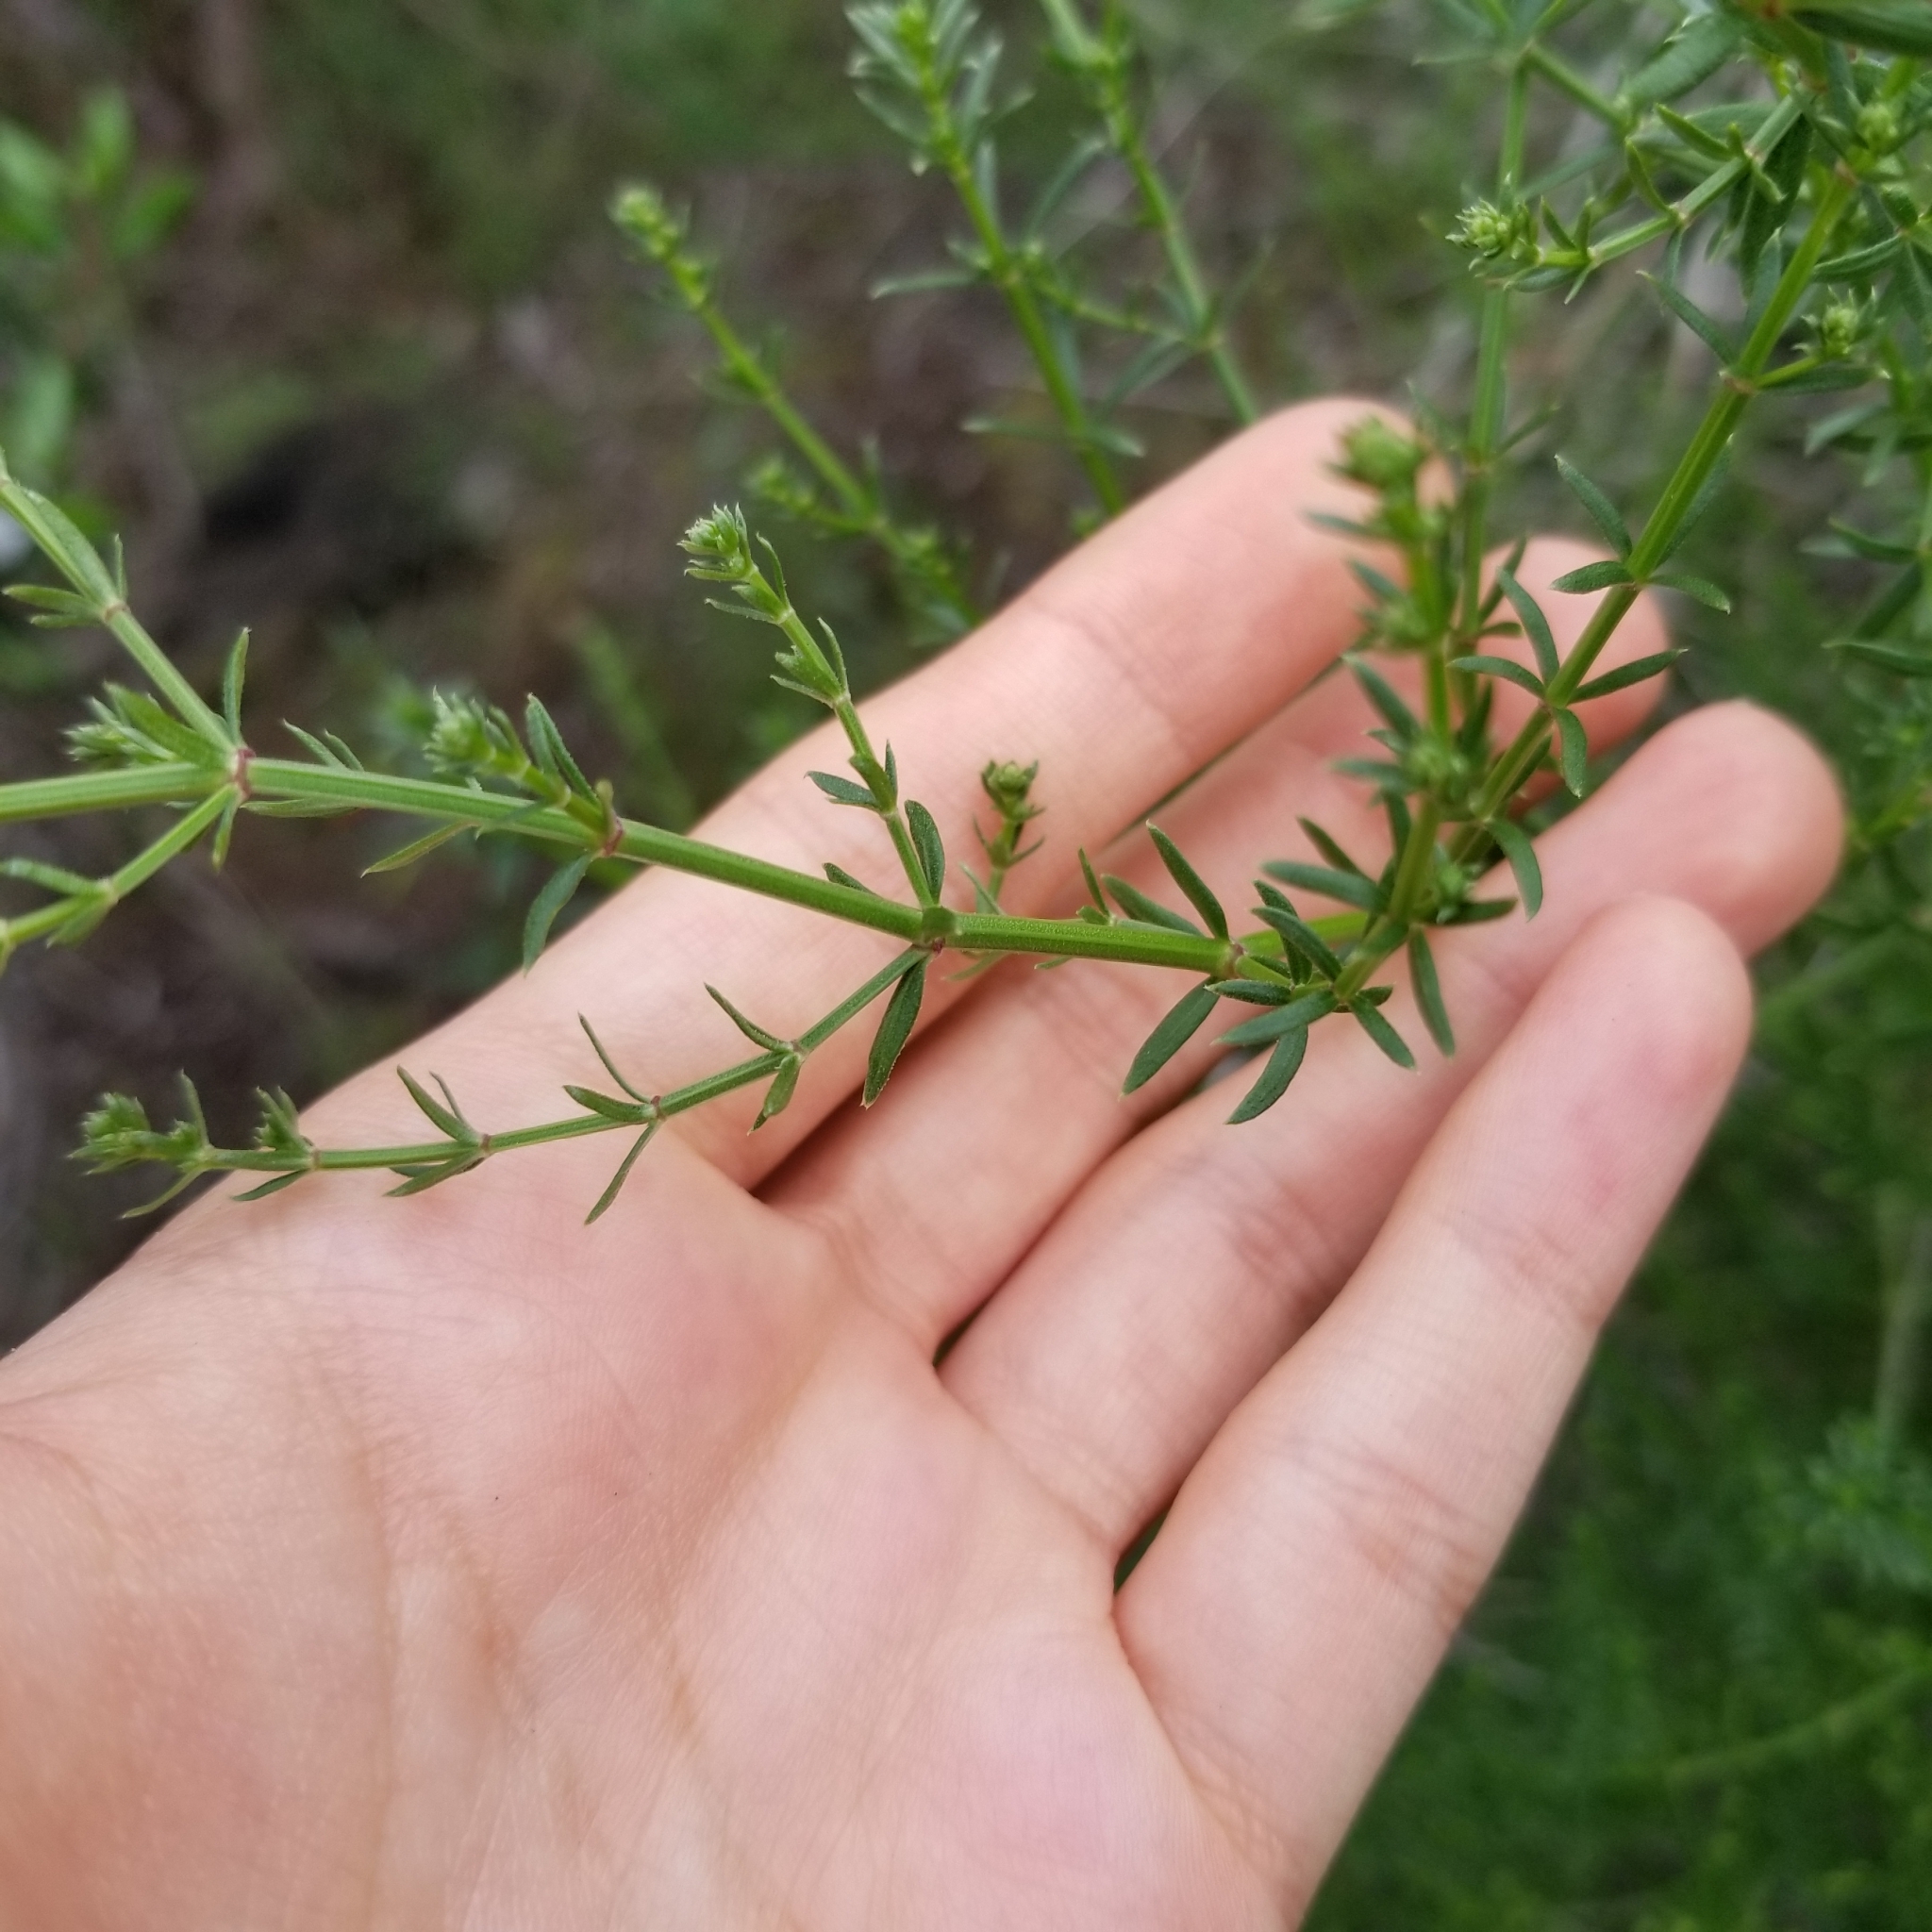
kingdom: Plantae
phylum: Tracheophyta
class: Magnoliopsida
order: Gentianales
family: Rubiaceae
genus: Galium
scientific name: Galium angustifolium
